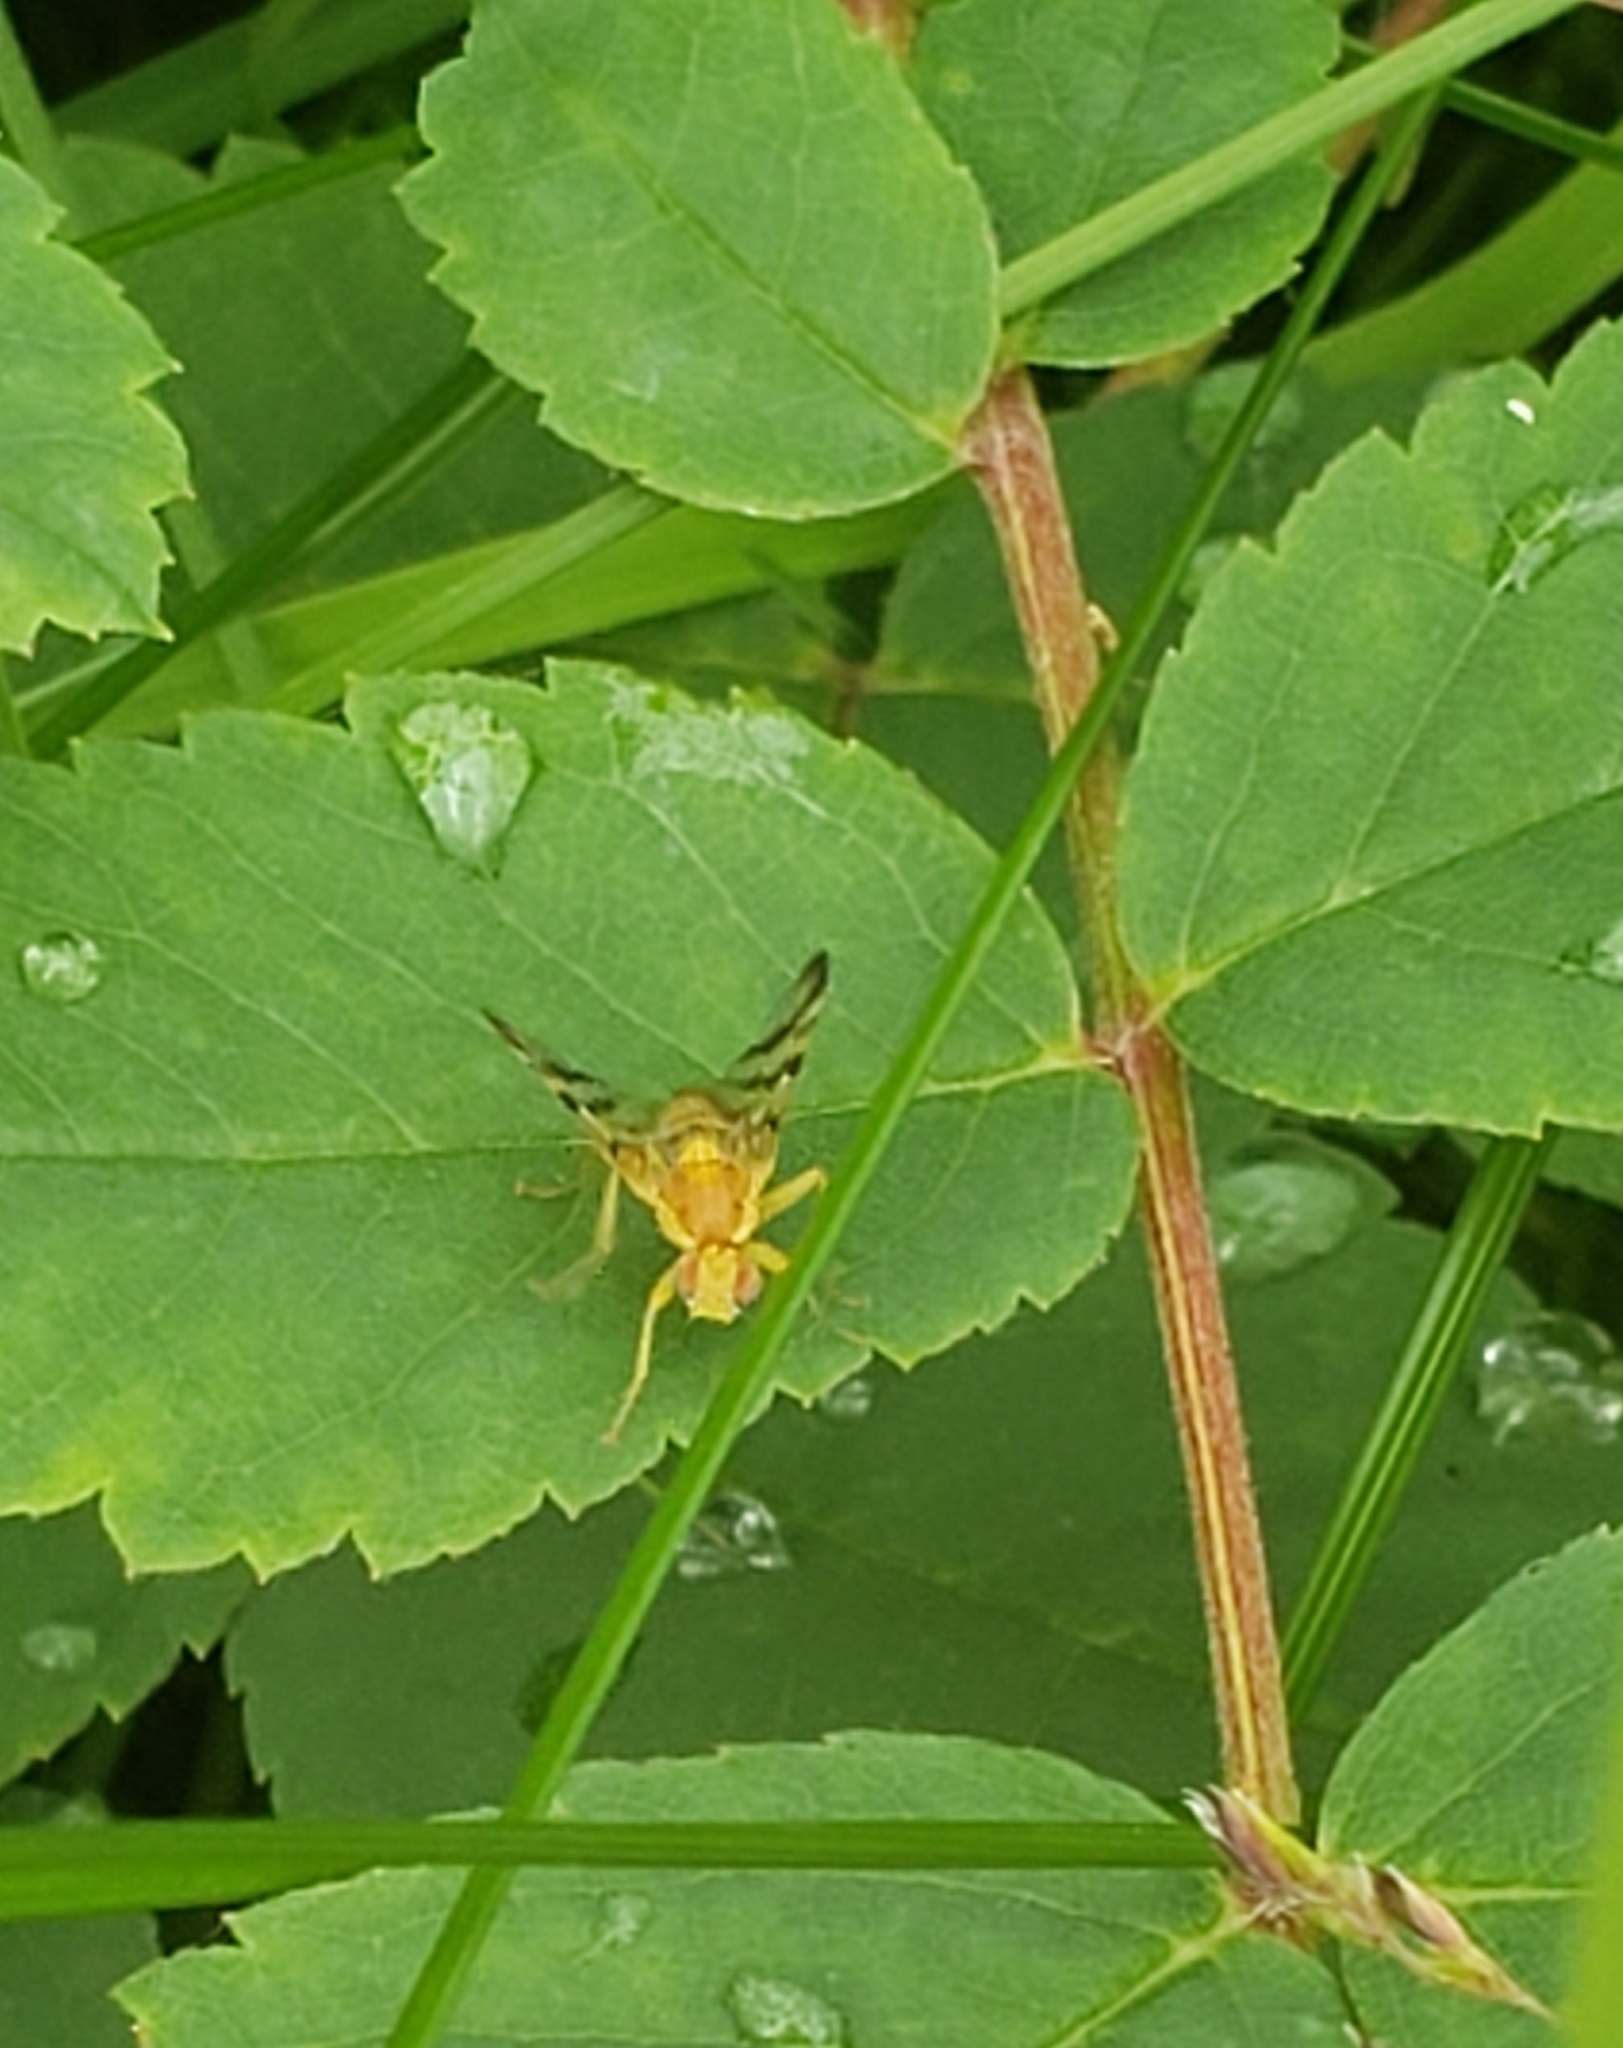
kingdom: Animalia
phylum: Arthropoda
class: Insecta
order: Diptera
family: Tephritidae
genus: Rhagoletis
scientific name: Rhagoletis basiola
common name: Rose hip fly
